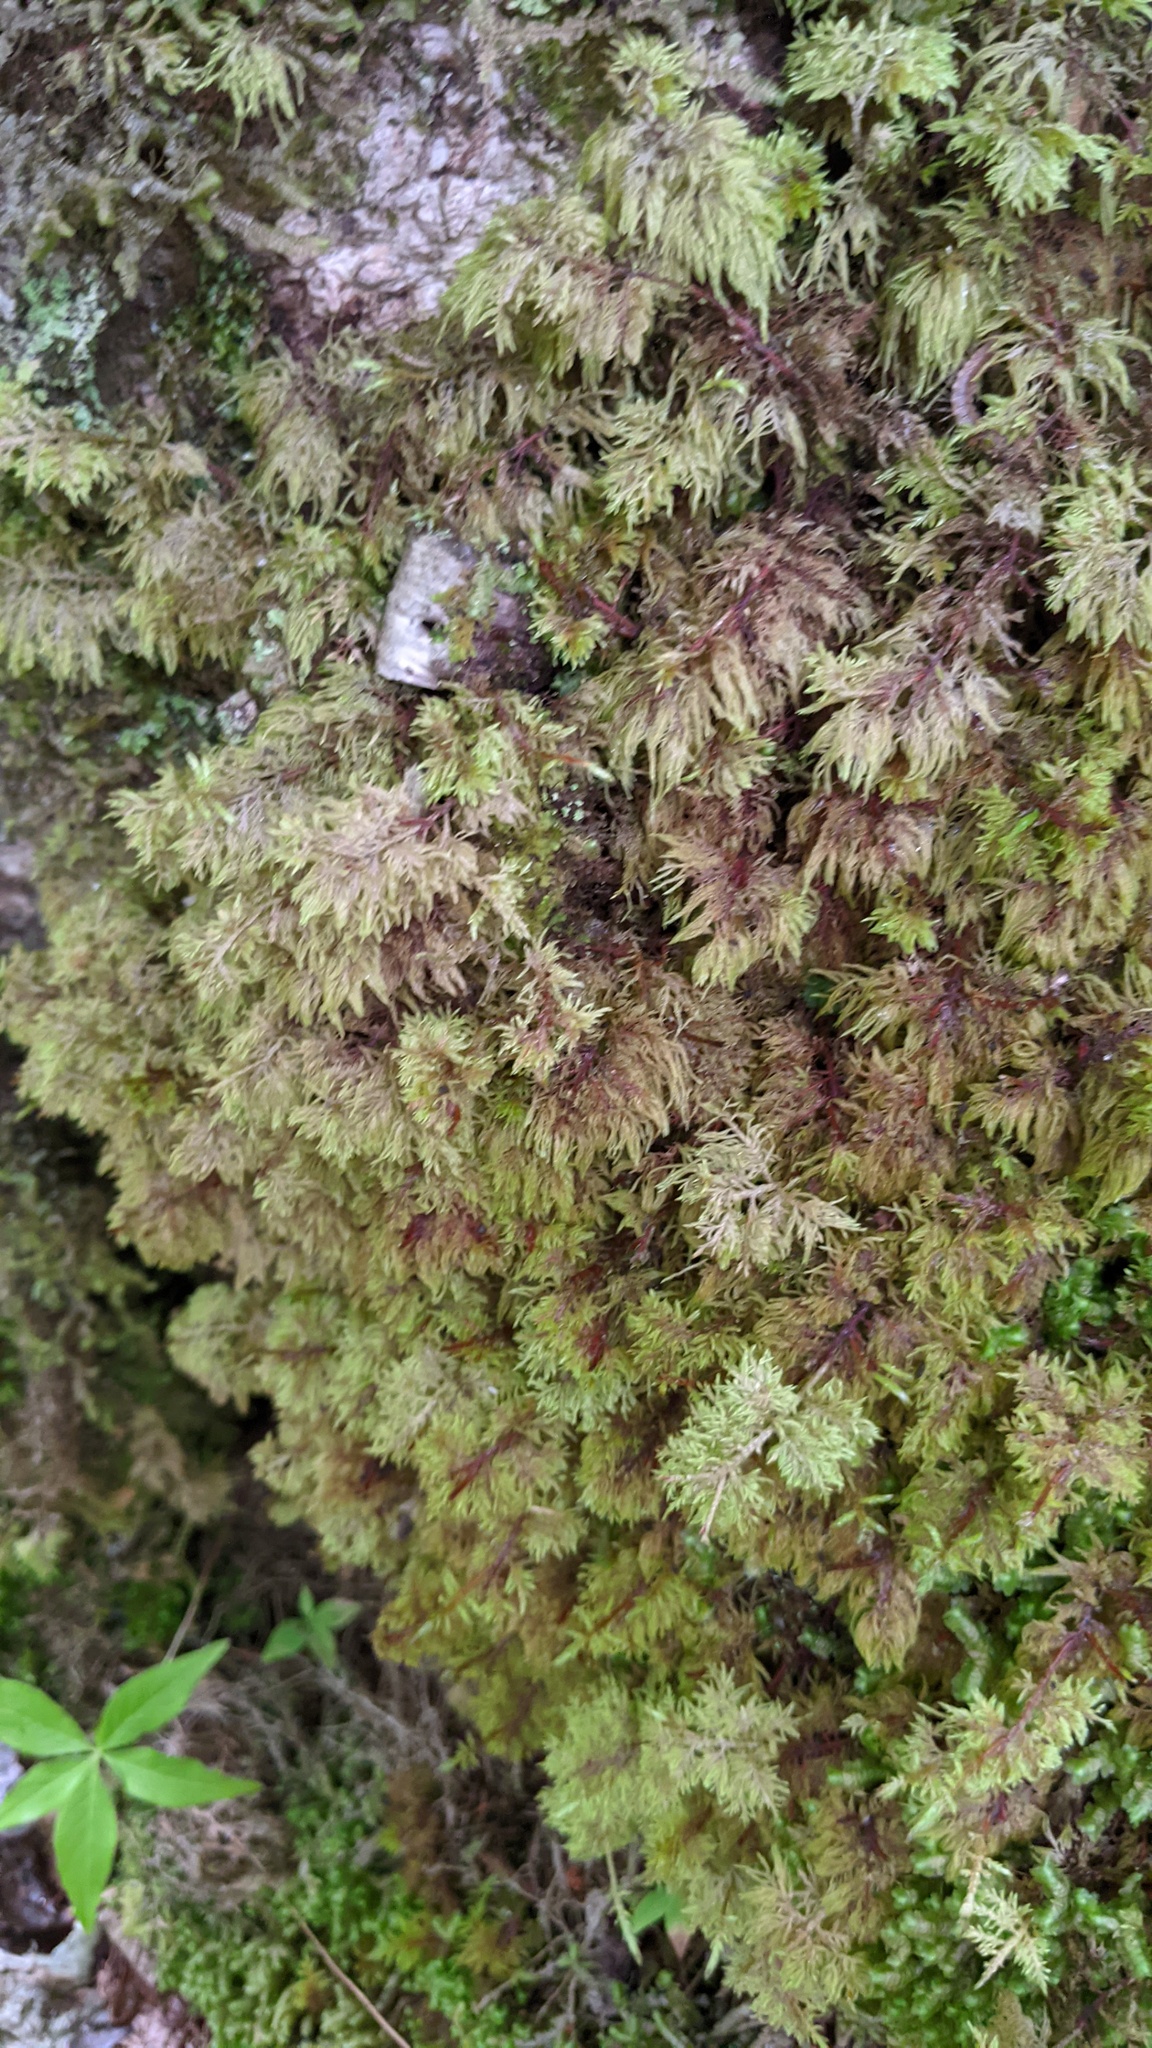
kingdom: Plantae
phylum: Bryophyta
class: Bryopsida
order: Hypnales
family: Hylocomiaceae
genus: Hylocomium
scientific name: Hylocomium splendens
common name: Stairstep moss
